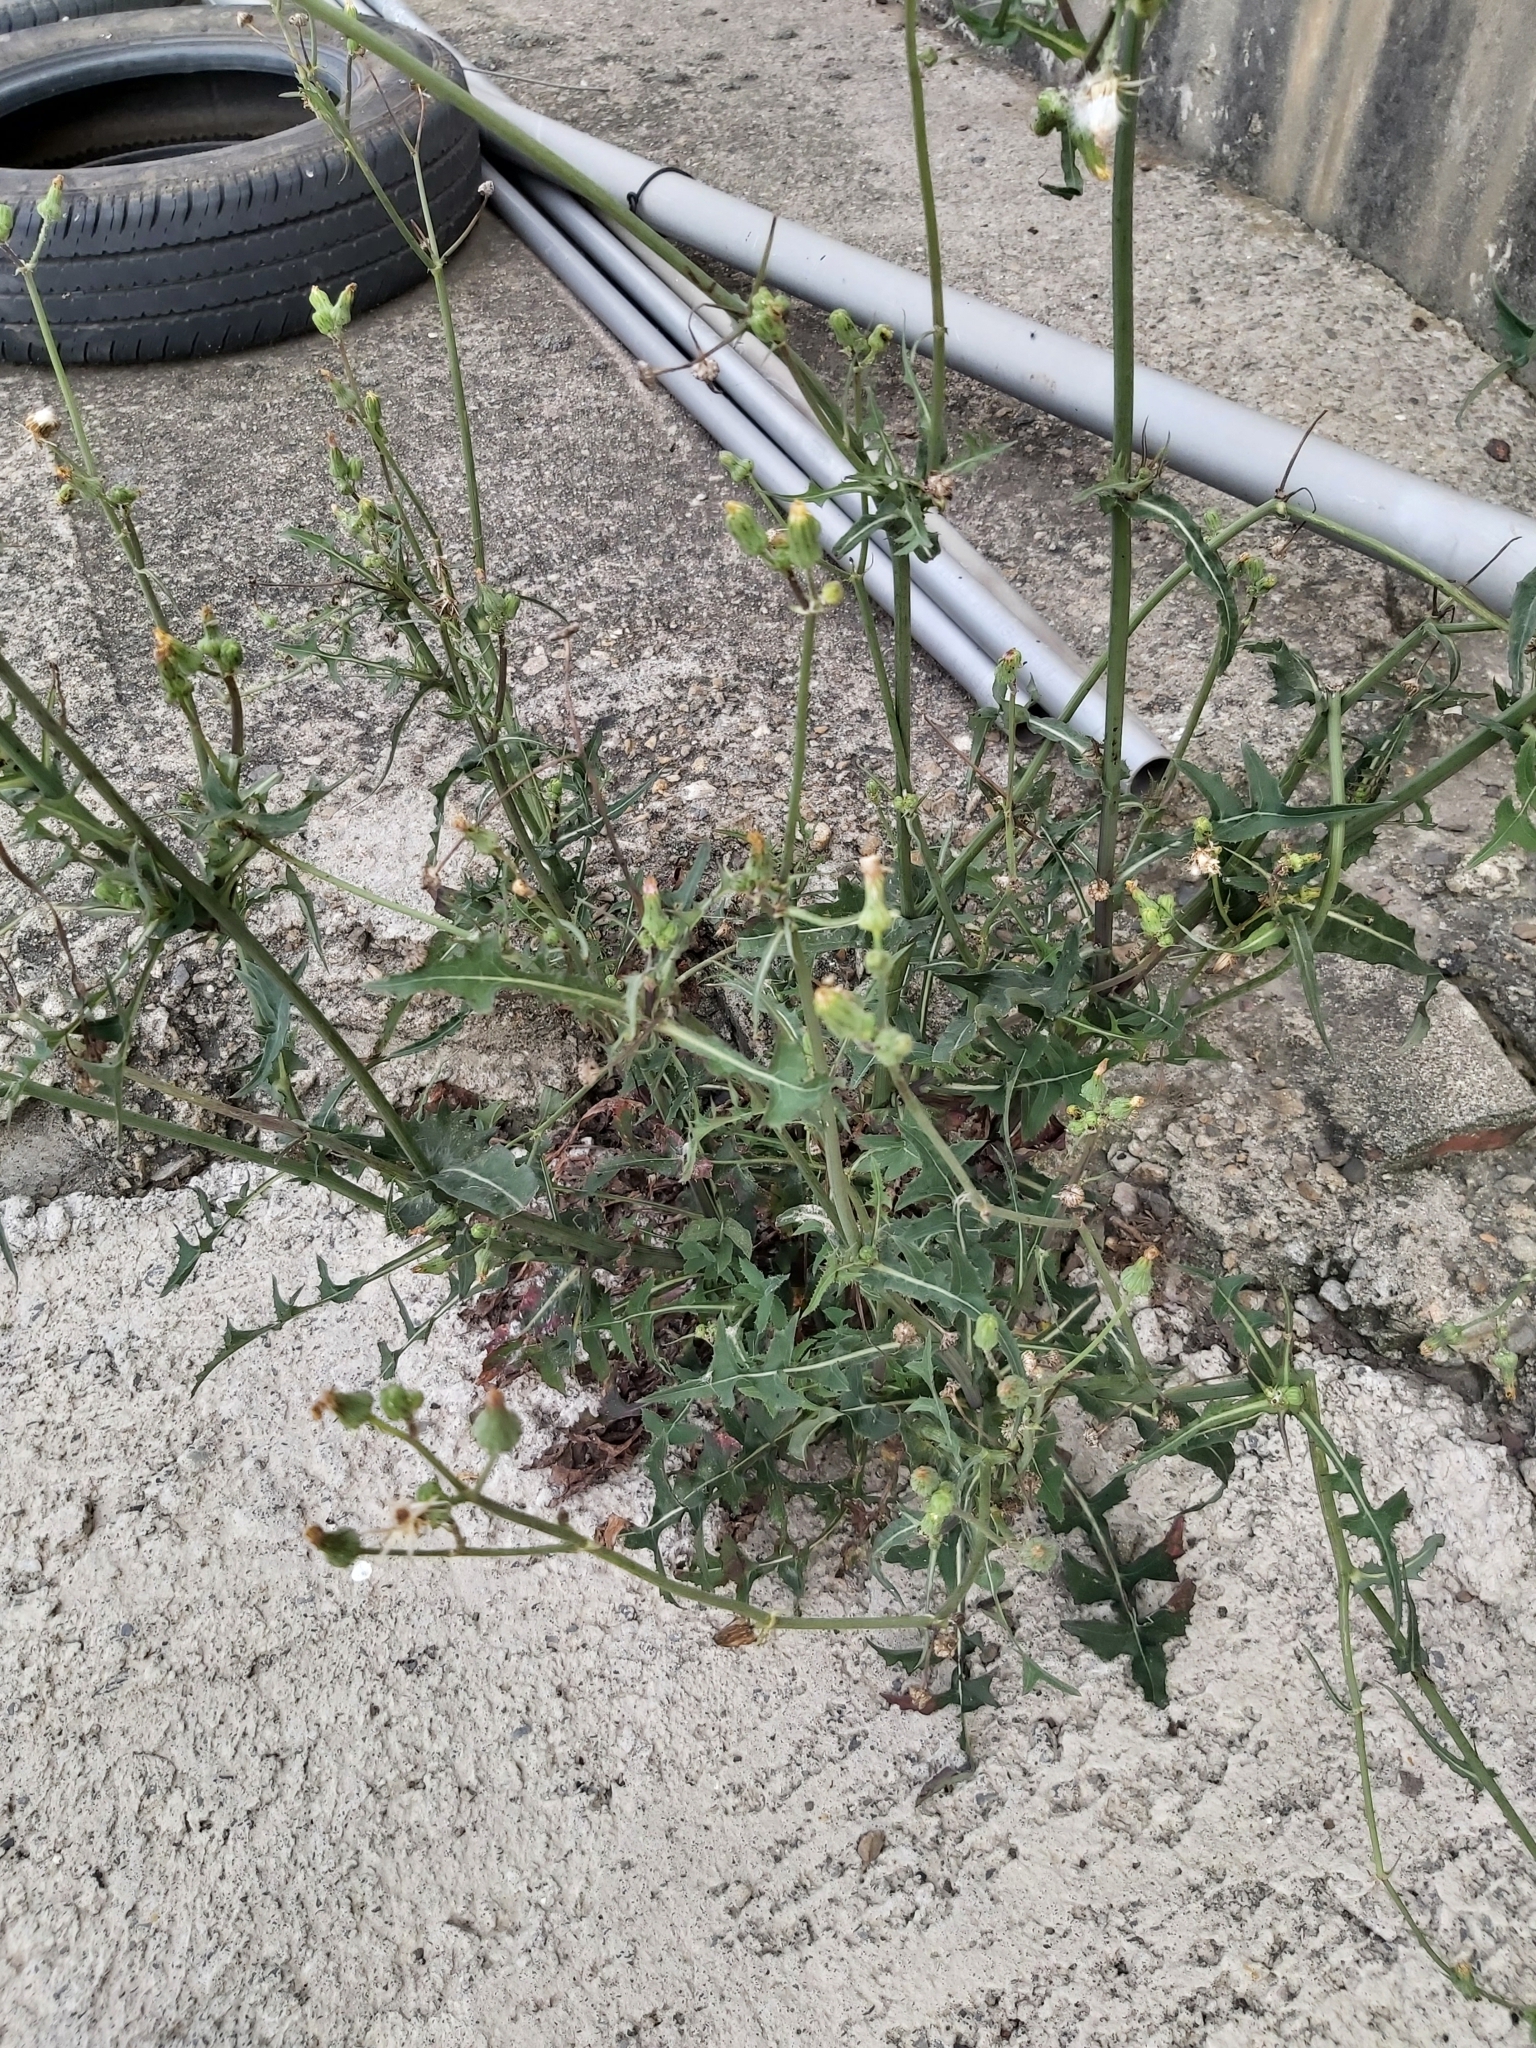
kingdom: Plantae
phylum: Tracheophyta
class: Magnoliopsida
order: Asterales
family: Asteraceae
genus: Sonchus
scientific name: Sonchus oleraceus
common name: Common sowthistle
